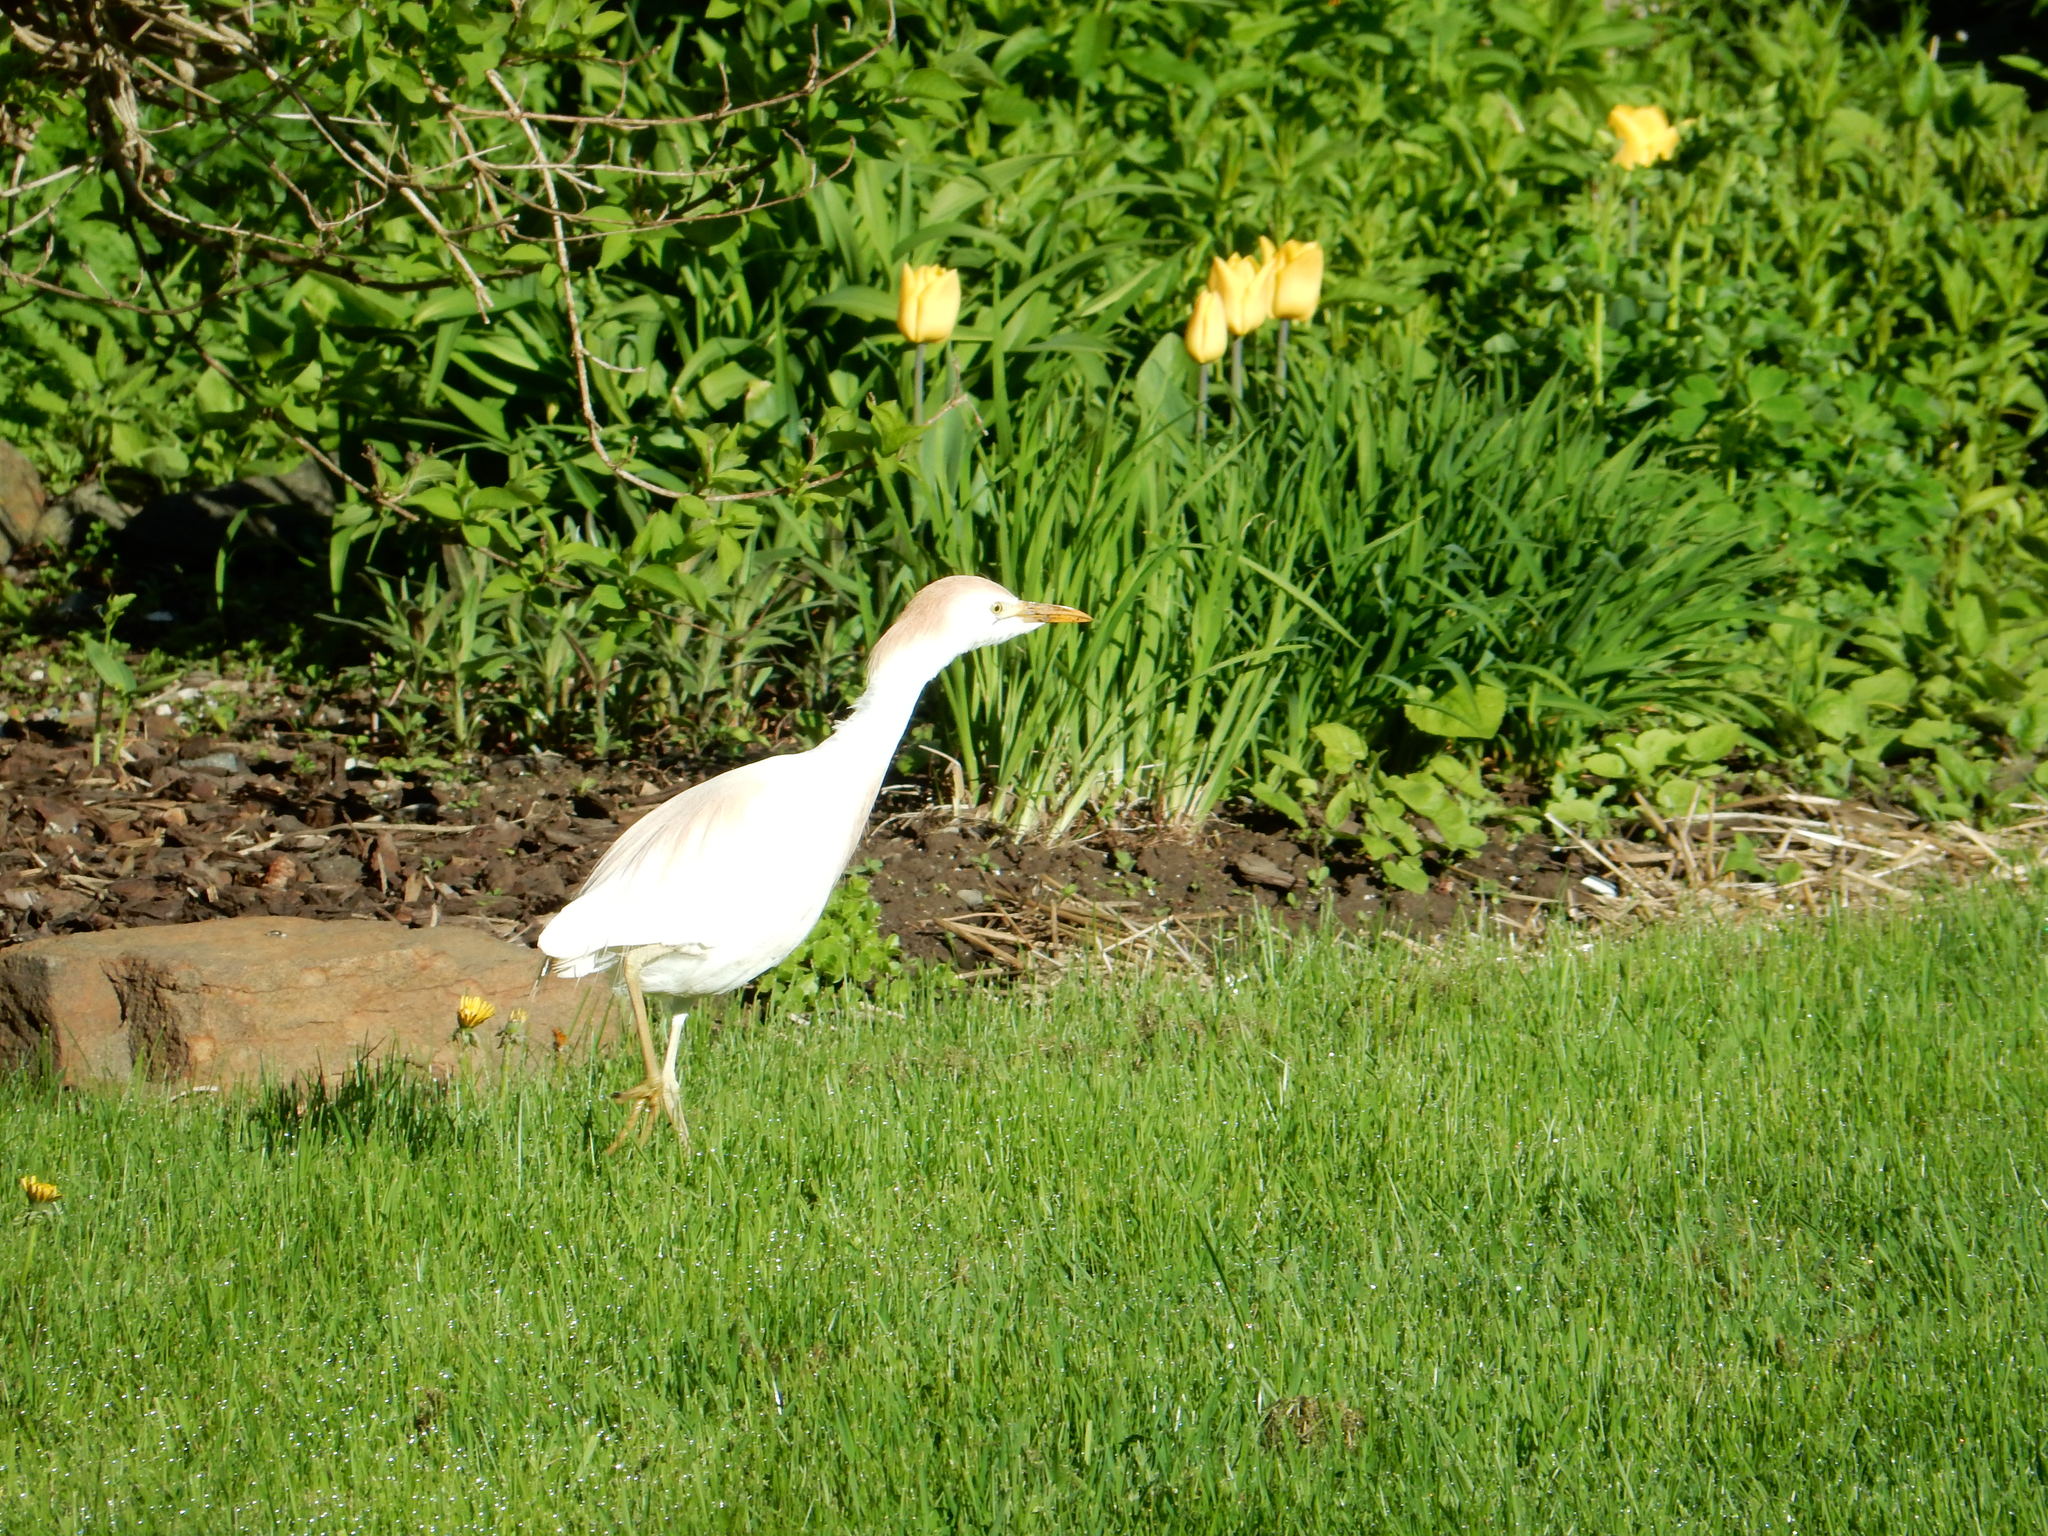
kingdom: Animalia
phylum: Chordata
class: Aves
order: Pelecaniformes
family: Ardeidae
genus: Bubulcus
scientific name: Bubulcus ibis
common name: Cattle egret
